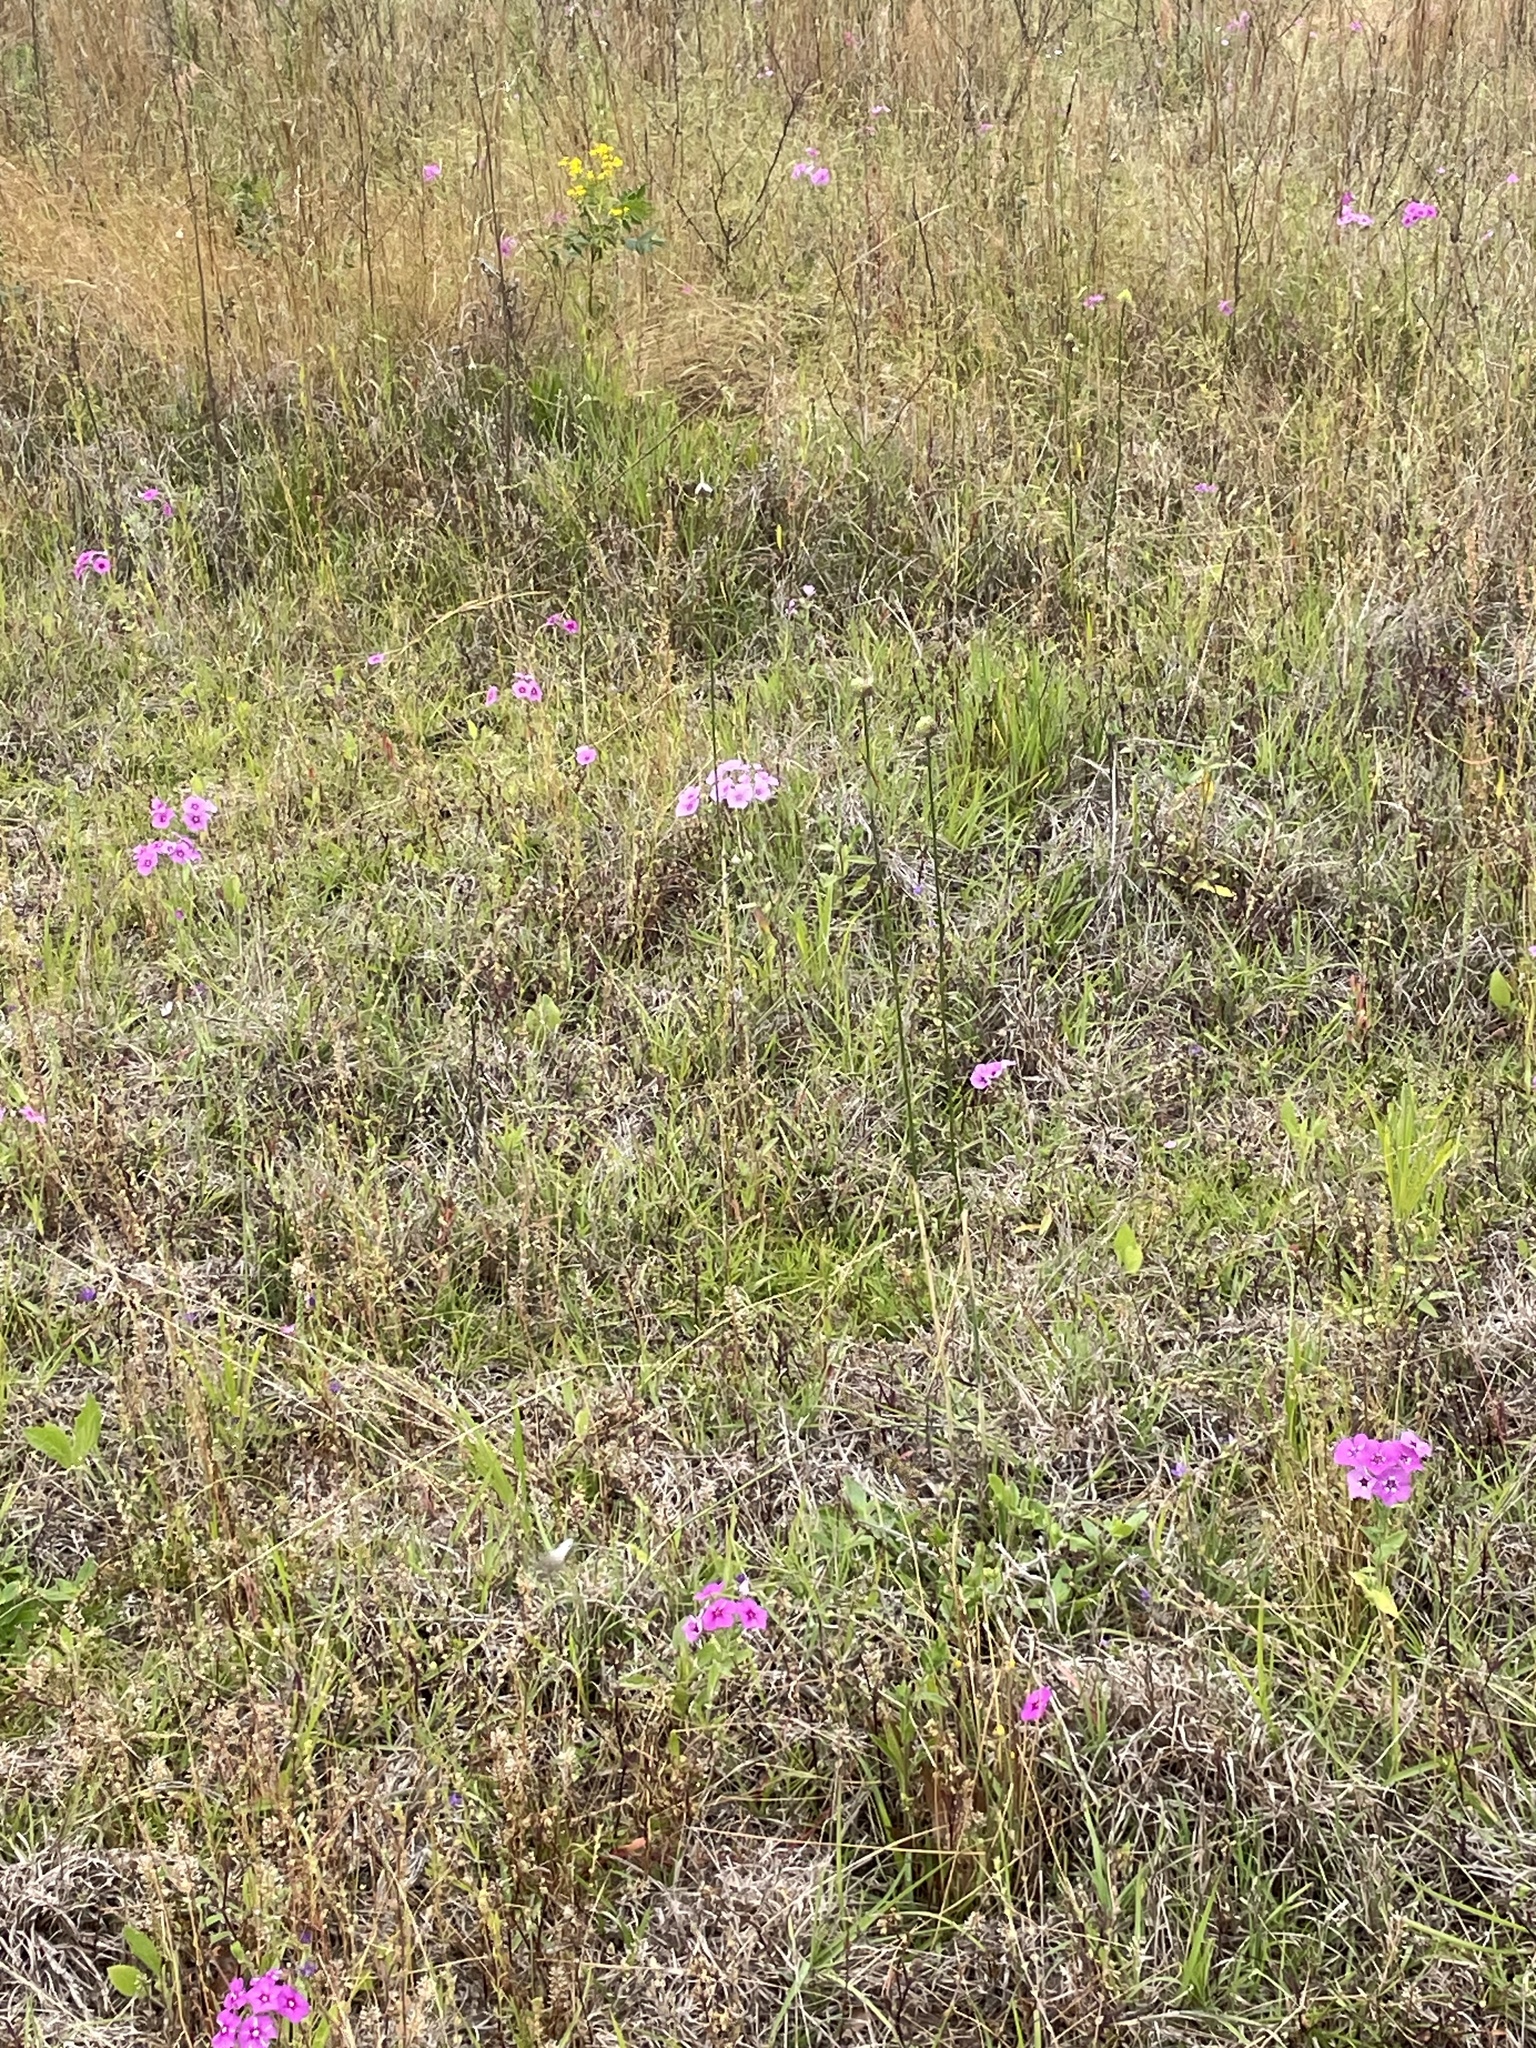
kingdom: Plantae
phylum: Tracheophyta
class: Magnoliopsida
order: Ericales
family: Polemoniaceae
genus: Phlox
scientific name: Phlox drummondii
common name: Drummond's phlox
